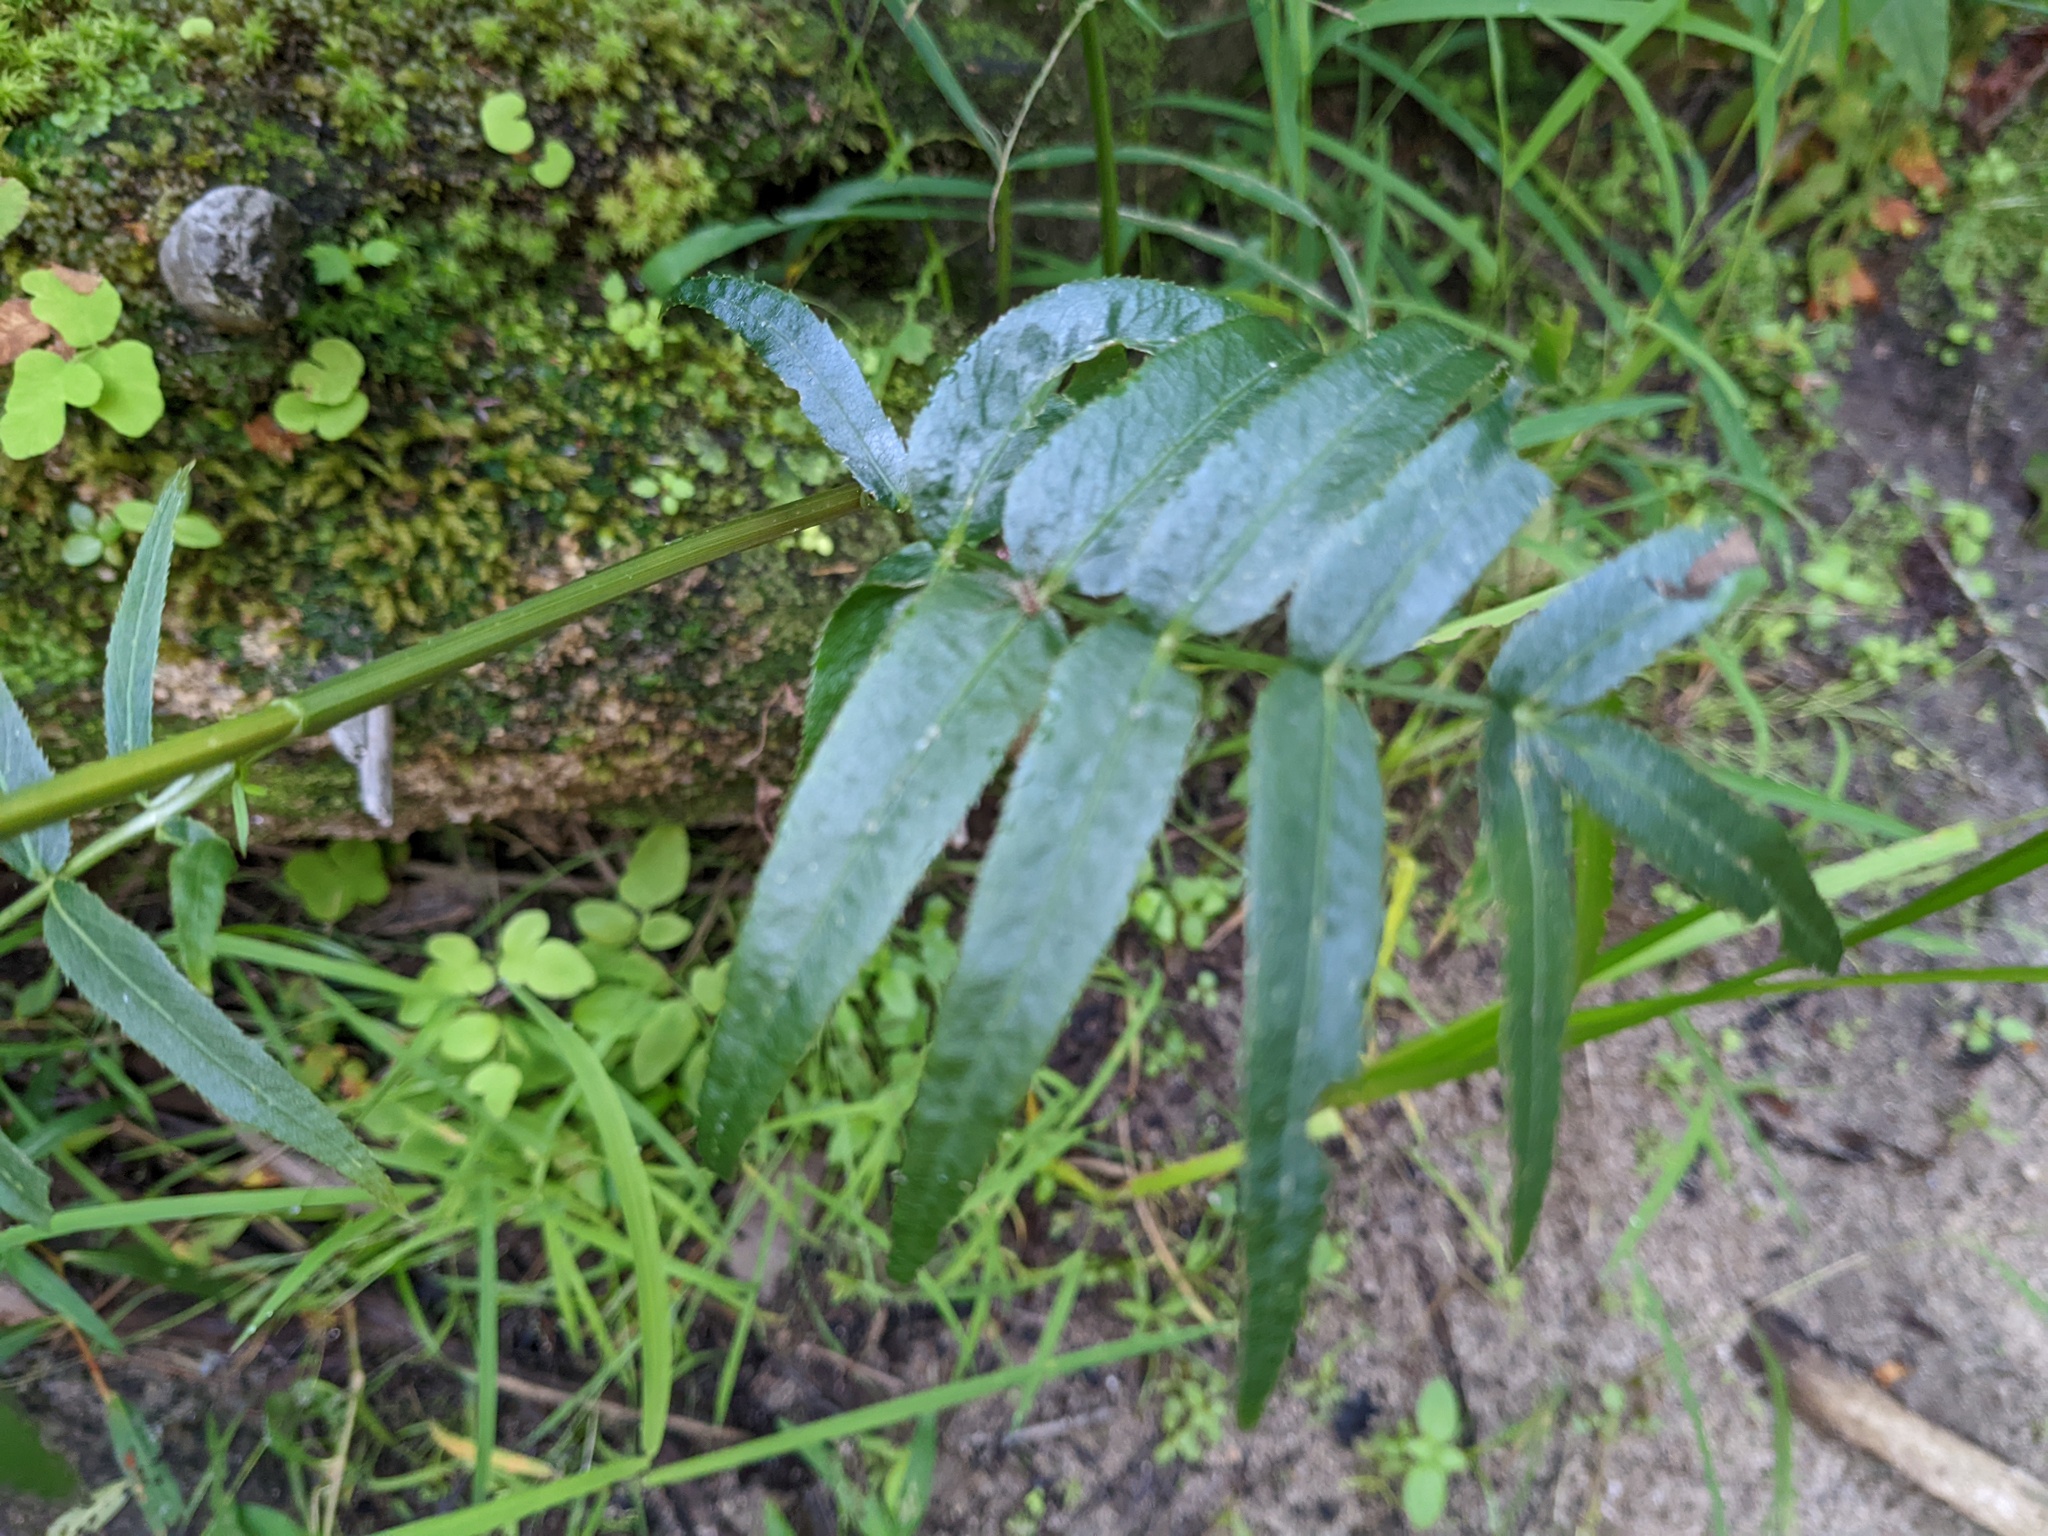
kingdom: Plantae
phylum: Tracheophyta
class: Magnoliopsida
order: Apiales
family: Apiaceae
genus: Sium
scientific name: Sium suave
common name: Hemlock water-parsnip
